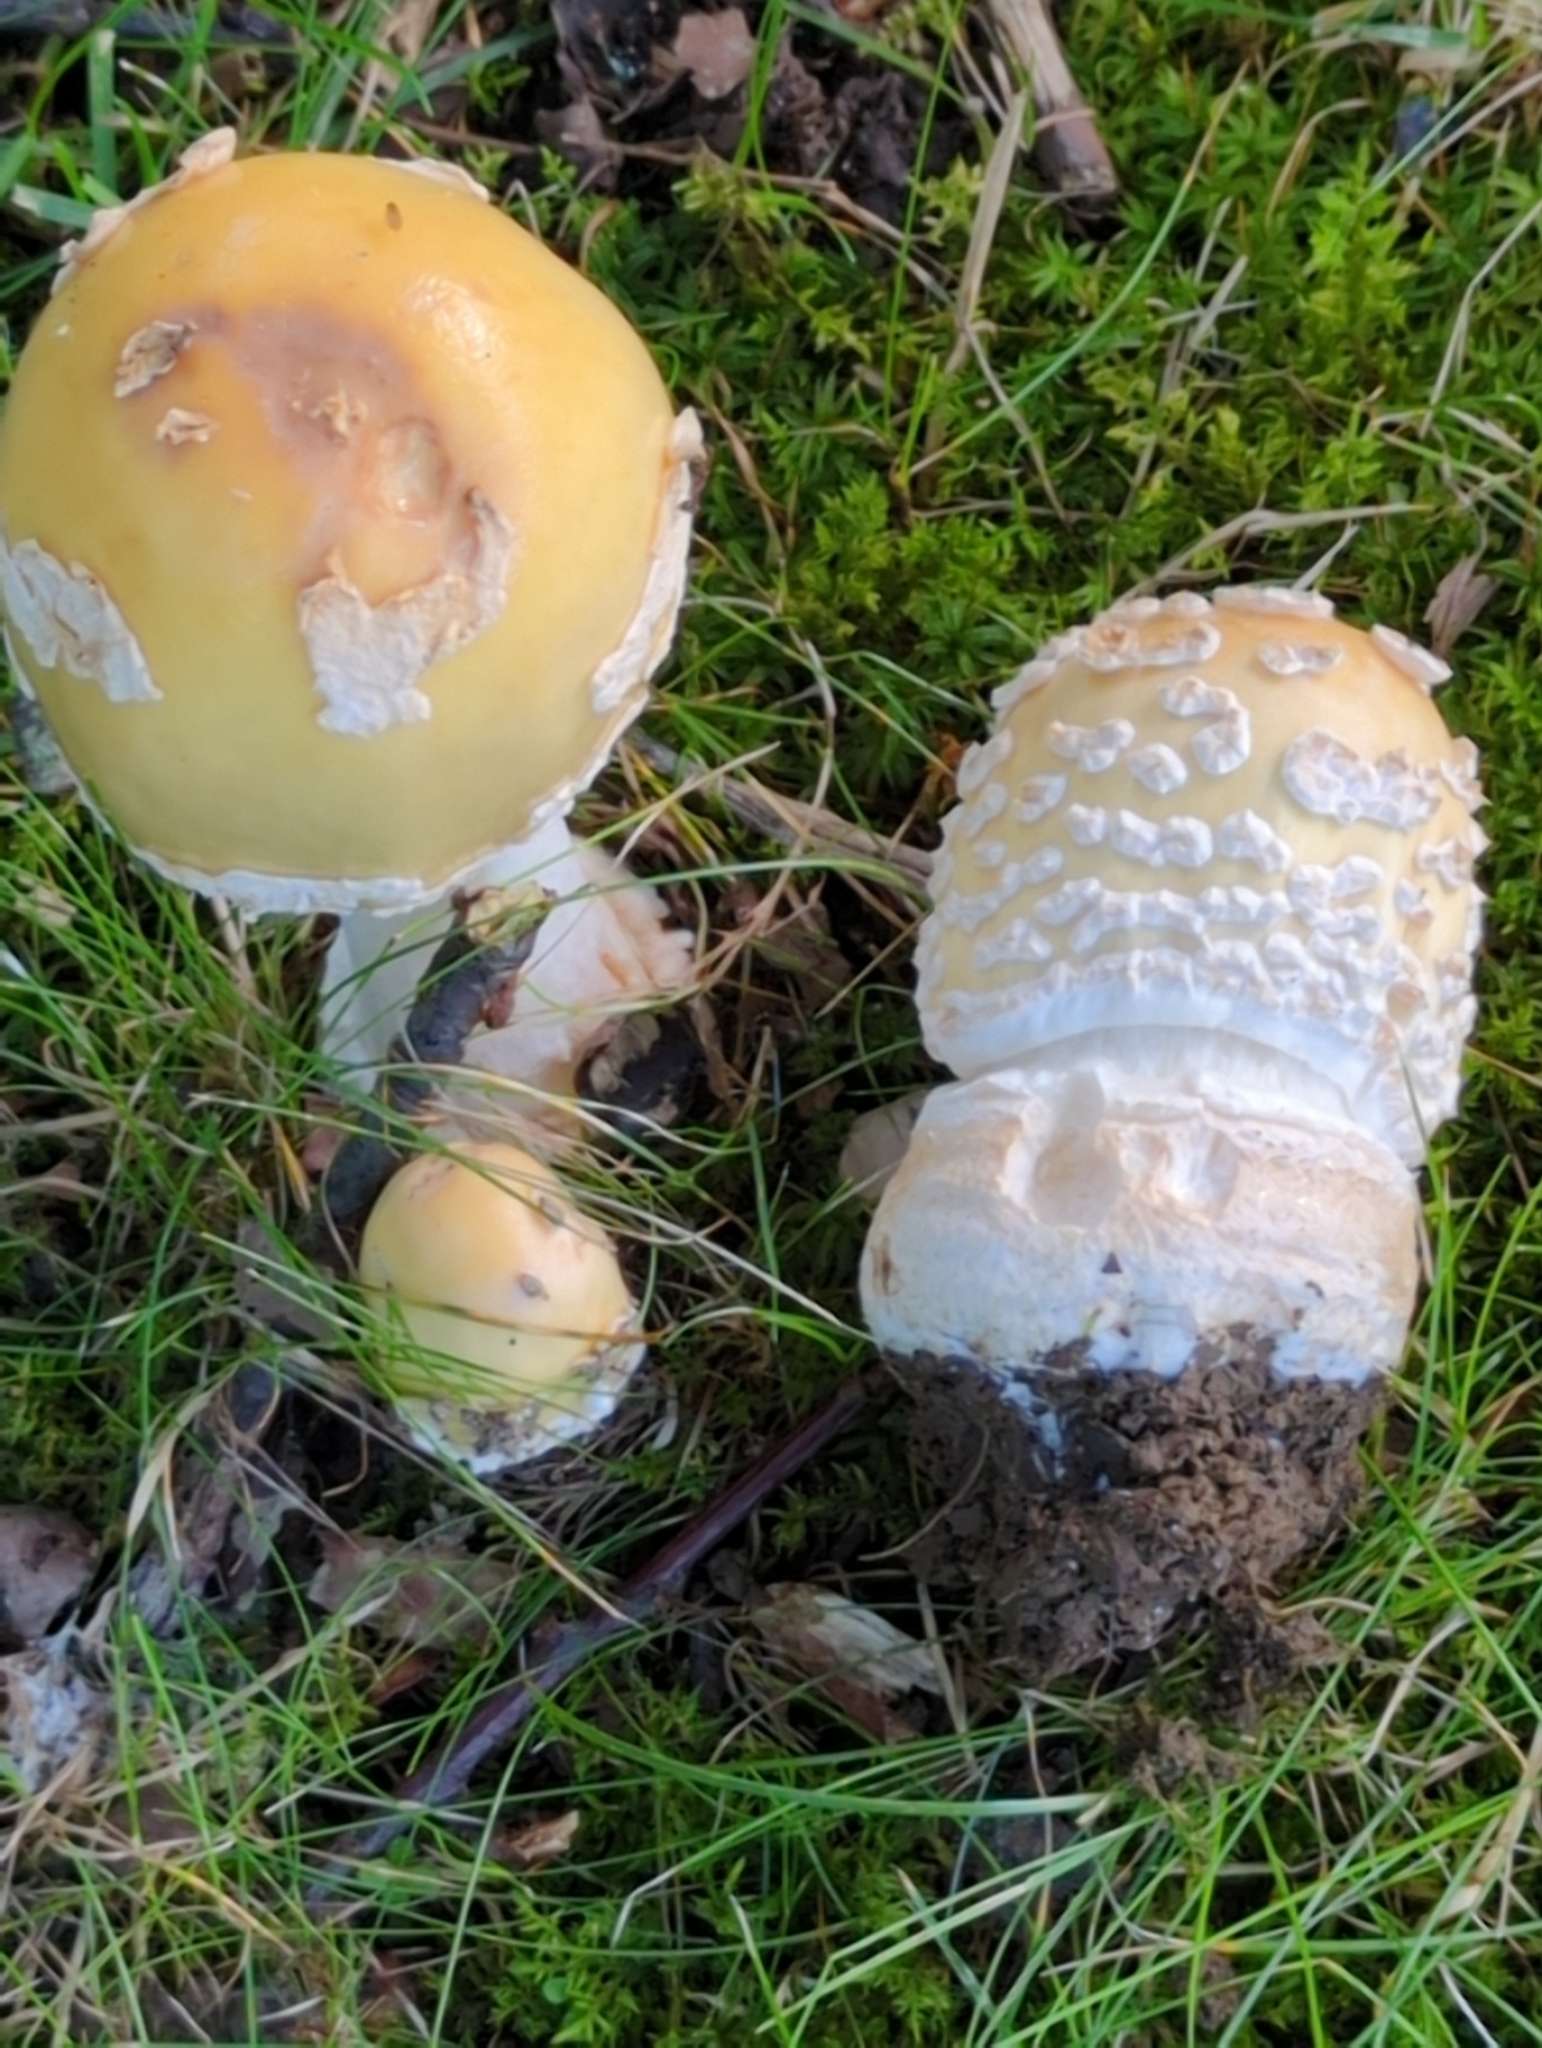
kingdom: Fungi
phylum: Basidiomycota
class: Agaricomycetes
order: Agaricales
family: Amanitaceae
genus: Amanita
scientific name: Amanita velatipes
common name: Great funnel-veil amanita
